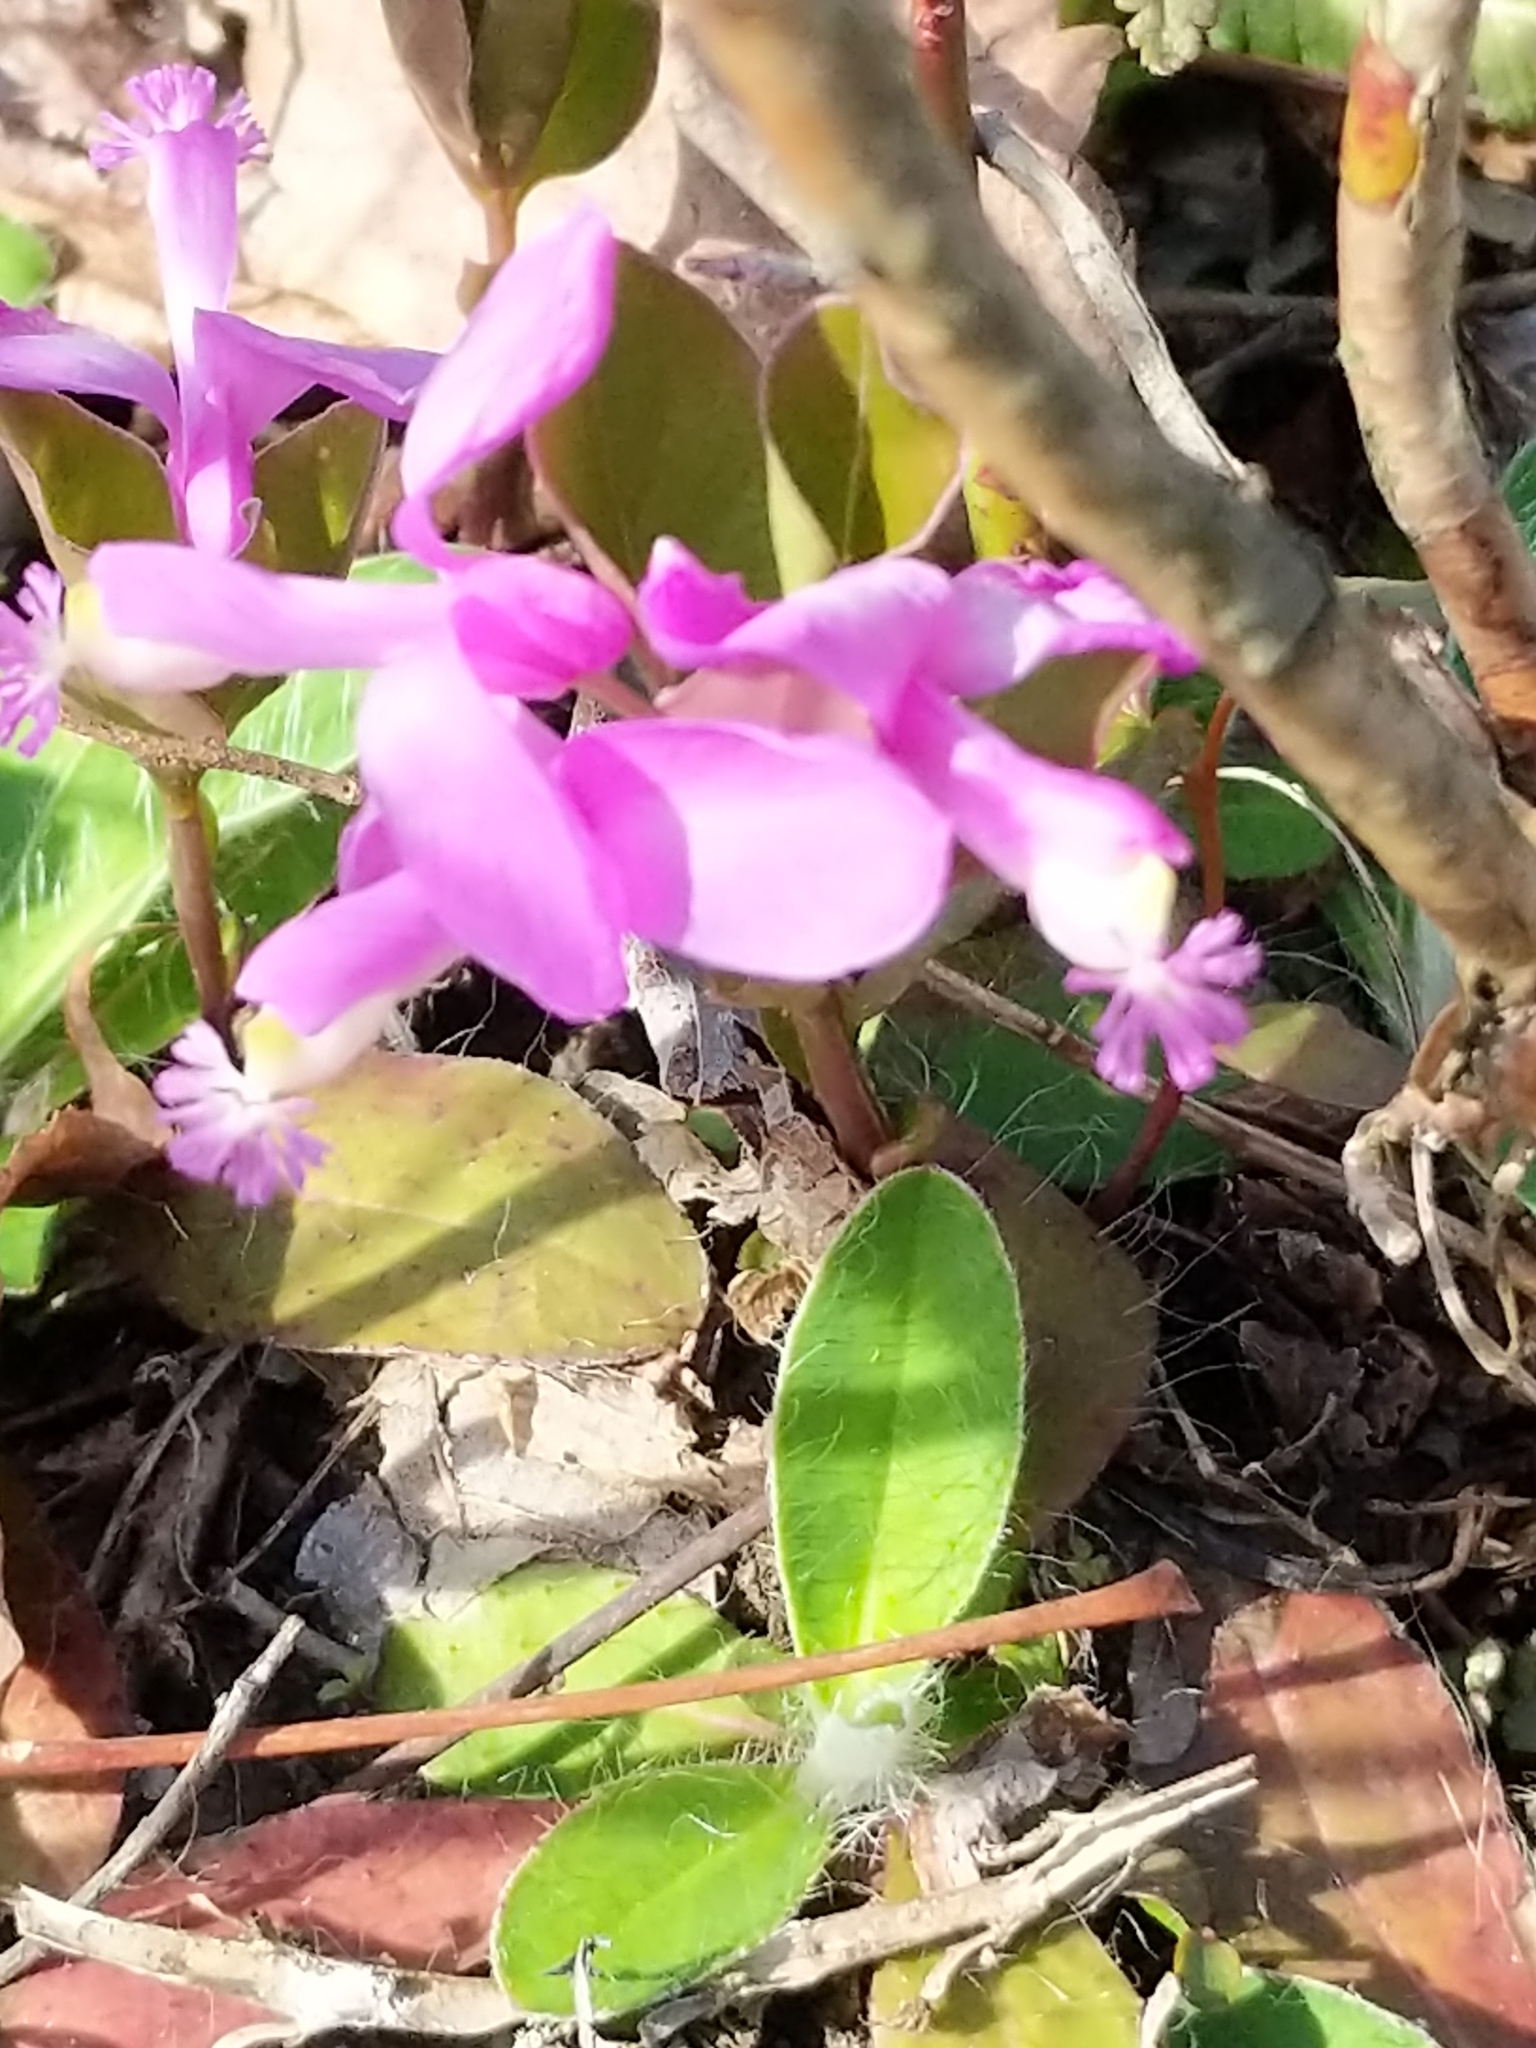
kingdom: Plantae
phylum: Tracheophyta
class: Magnoliopsida
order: Fabales
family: Polygalaceae
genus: Polygaloides
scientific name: Polygaloides paucifolia
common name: Bird-on-the-wing
